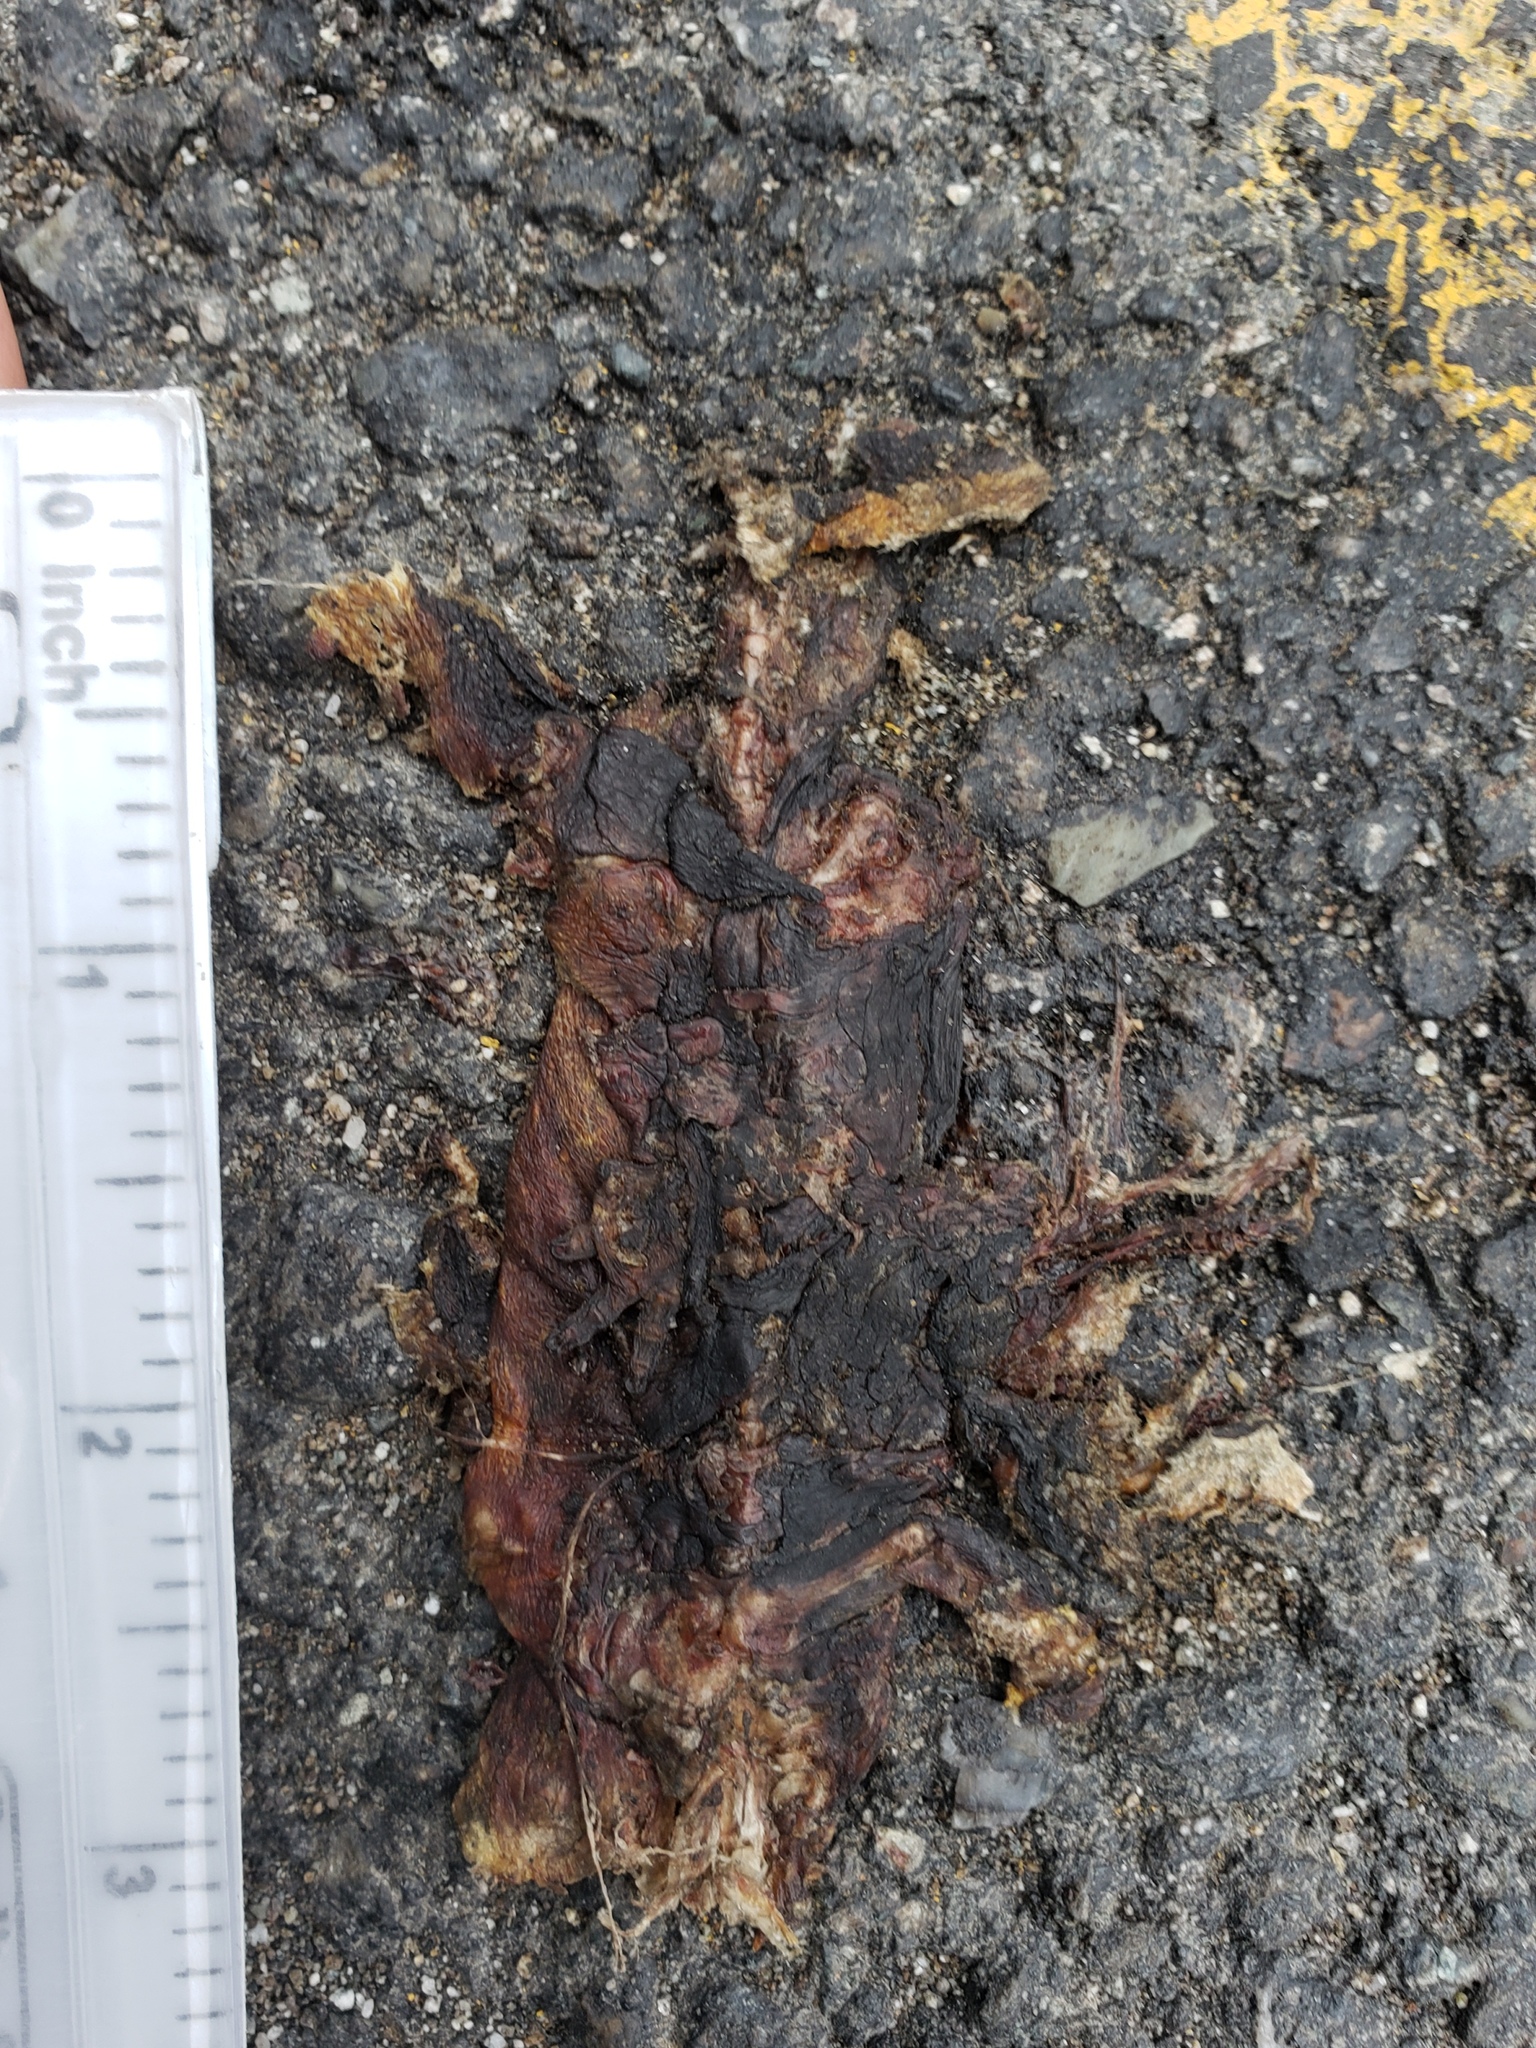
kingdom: Animalia
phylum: Chordata
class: Amphibia
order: Caudata
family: Salamandridae
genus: Taricha
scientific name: Taricha
